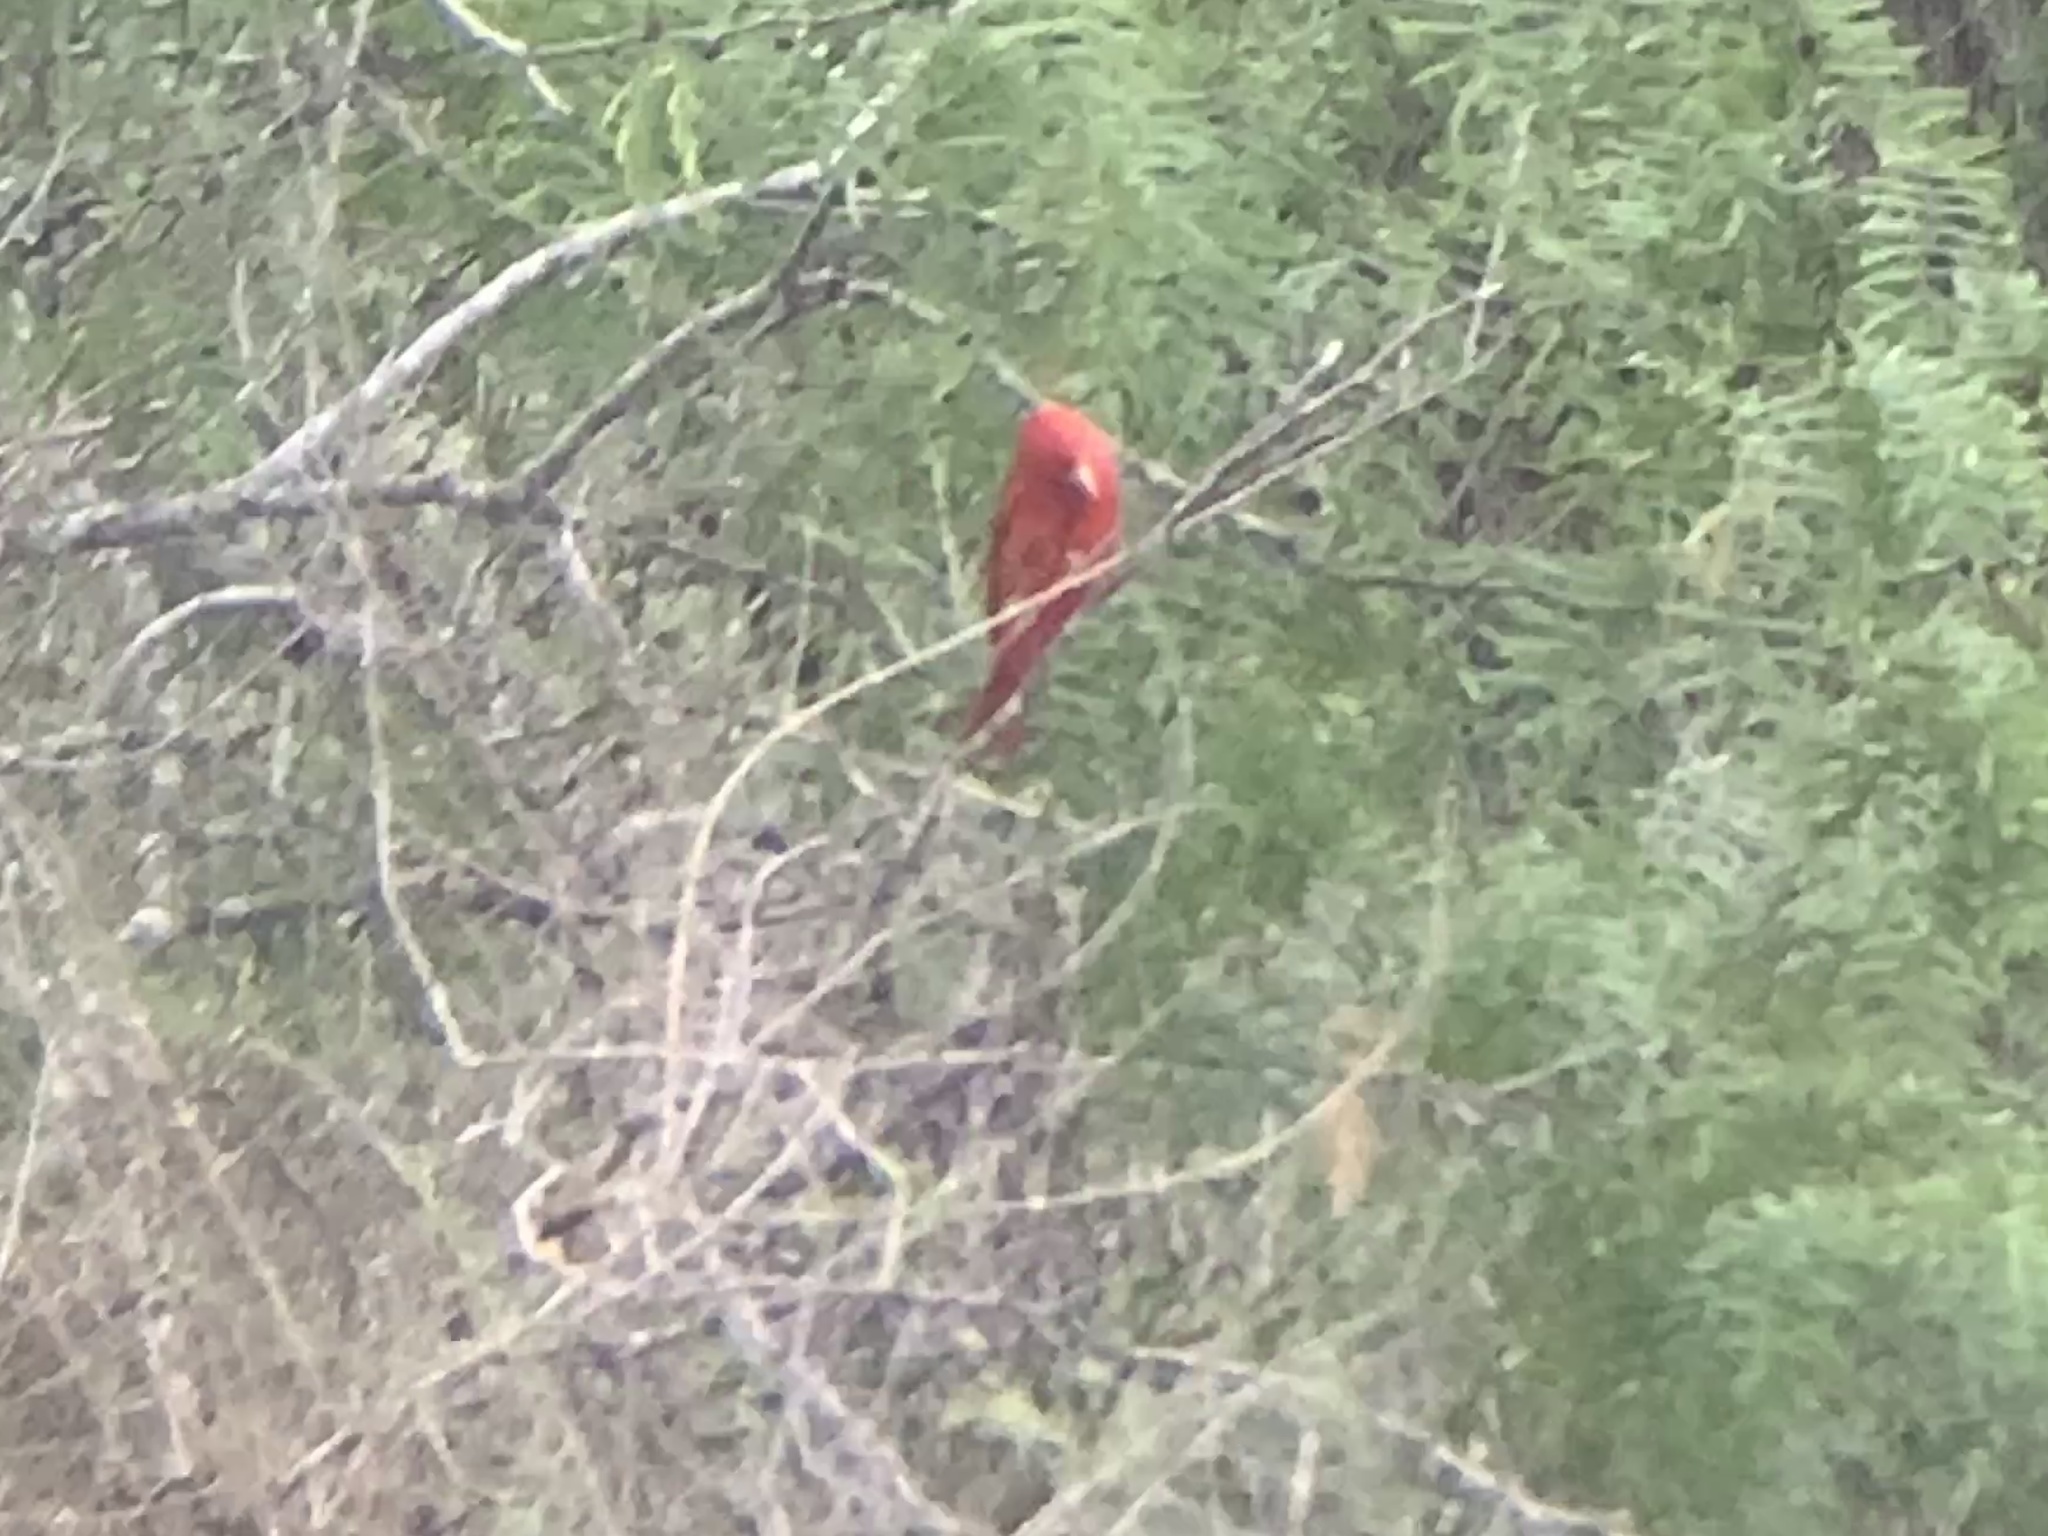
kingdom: Animalia
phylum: Chordata
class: Aves
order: Passeriformes
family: Cardinalidae
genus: Piranga
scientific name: Piranga rubra
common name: Summer tanager
